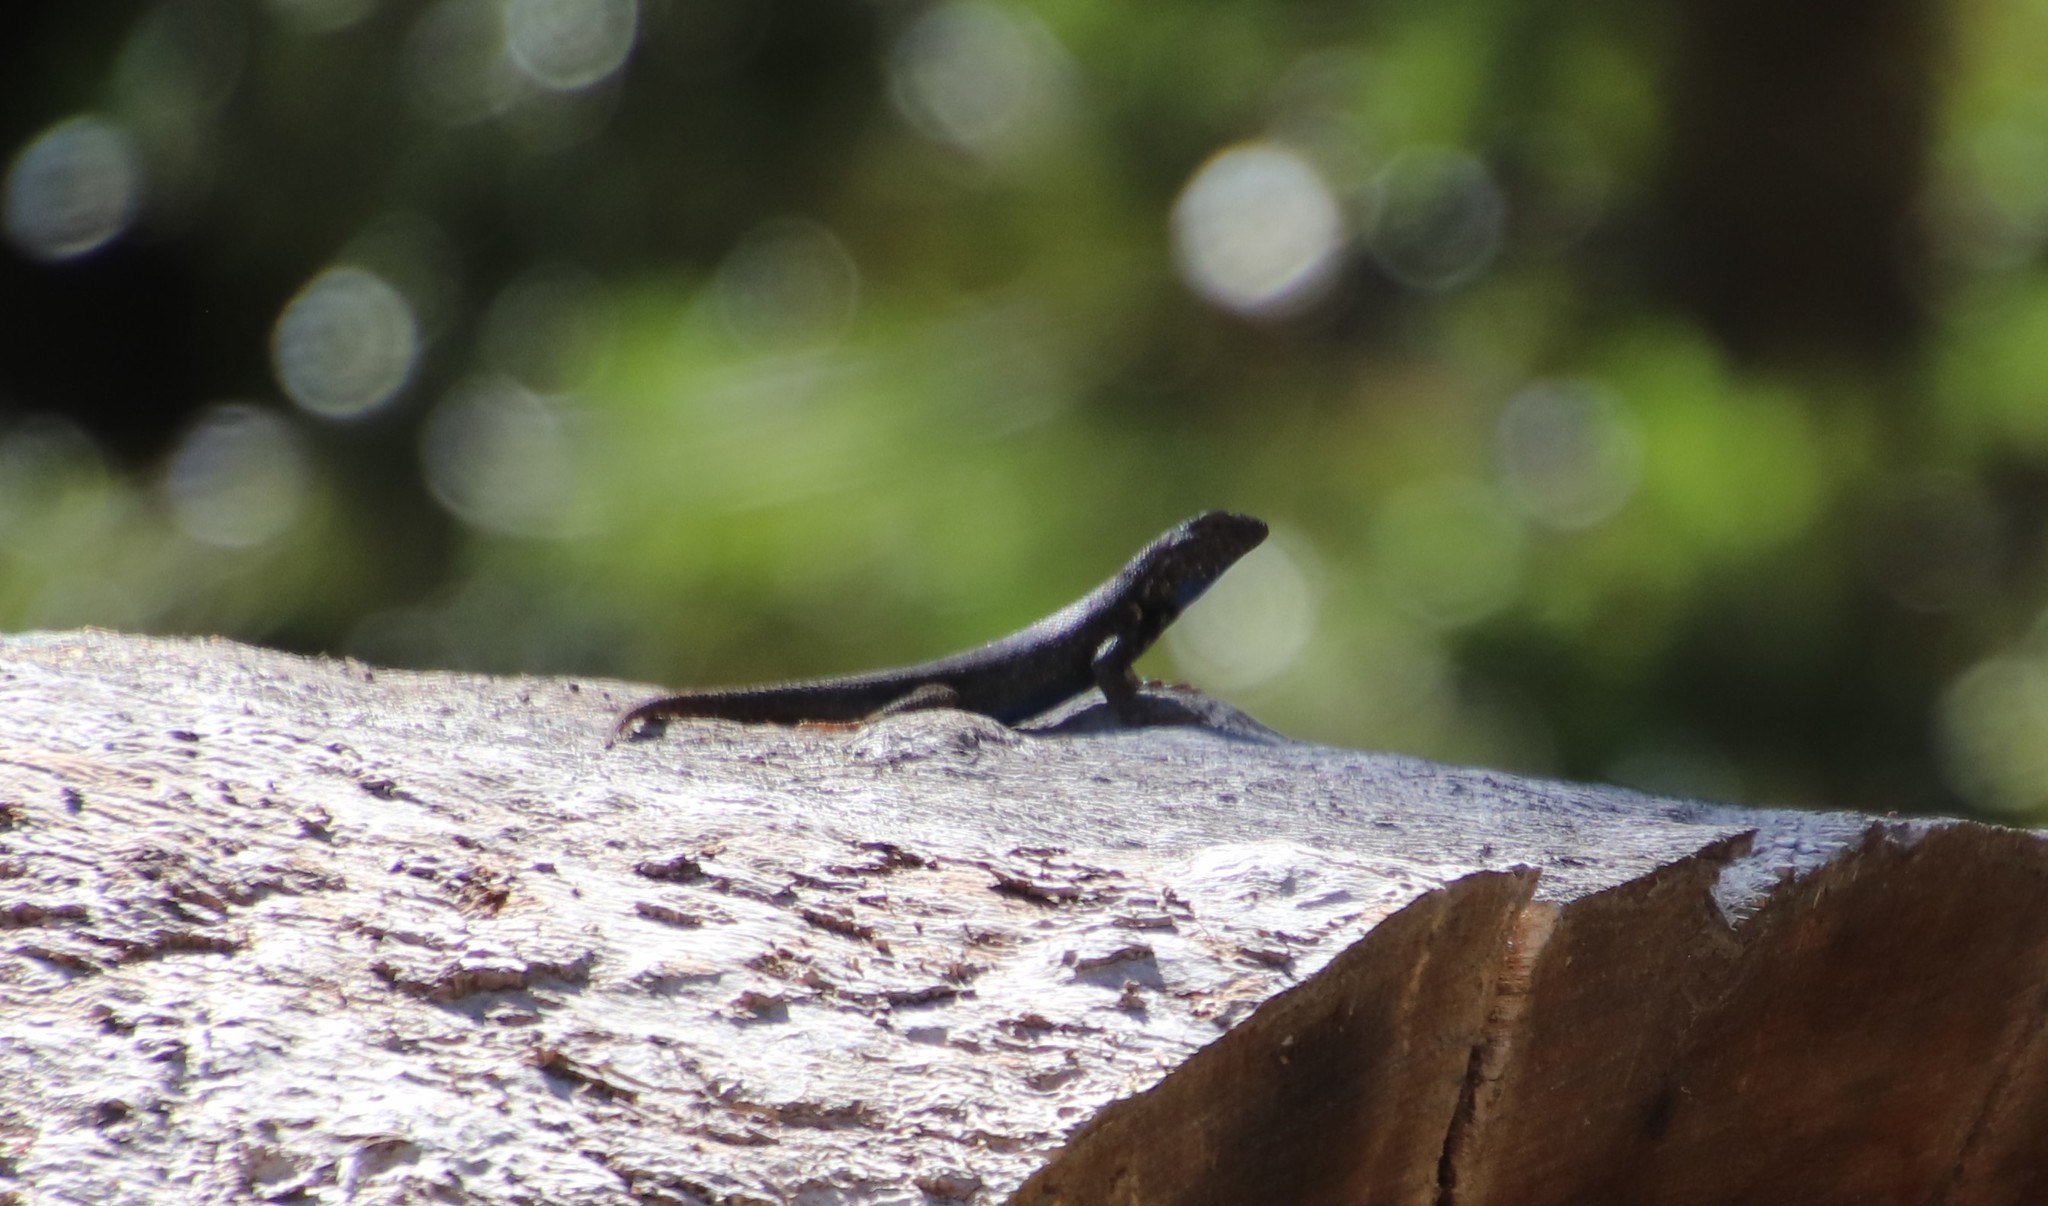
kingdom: Animalia
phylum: Chordata
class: Squamata
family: Phrynosomatidae
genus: Sceloporus
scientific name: Sceloporus graciosus
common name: Sagebrush lizard
